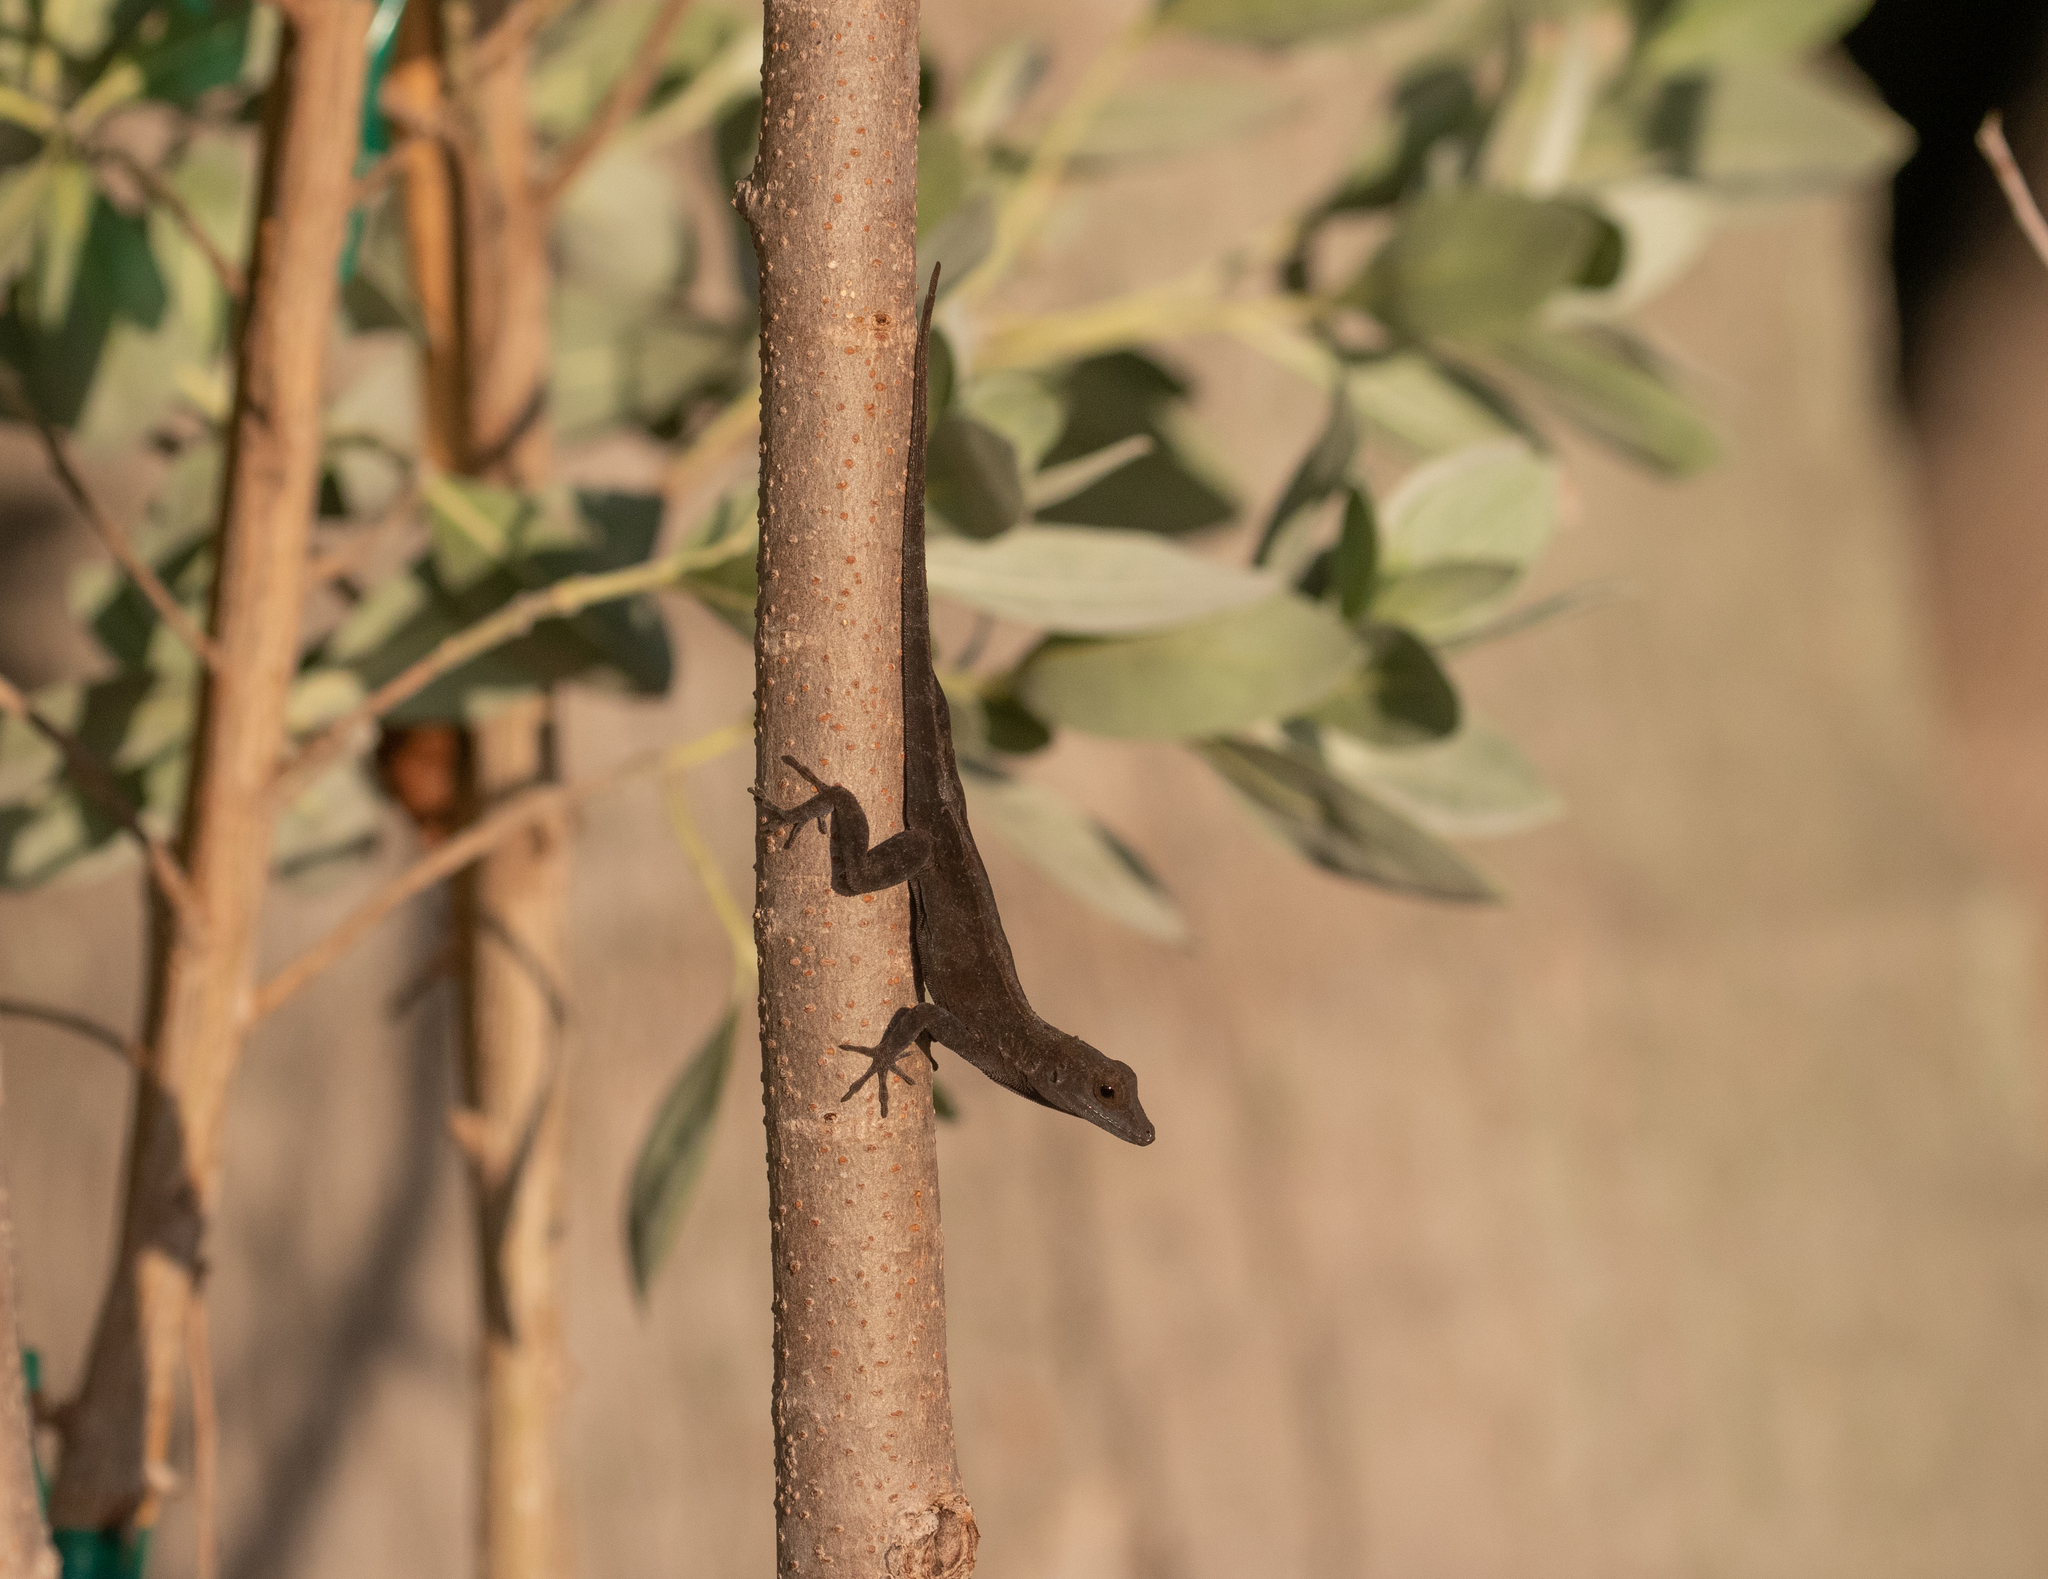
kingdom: Animalia
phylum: Chordata
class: Squamata
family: Dactyloidae
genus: Anolis
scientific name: Anolis cristatellus
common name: Crested anole
